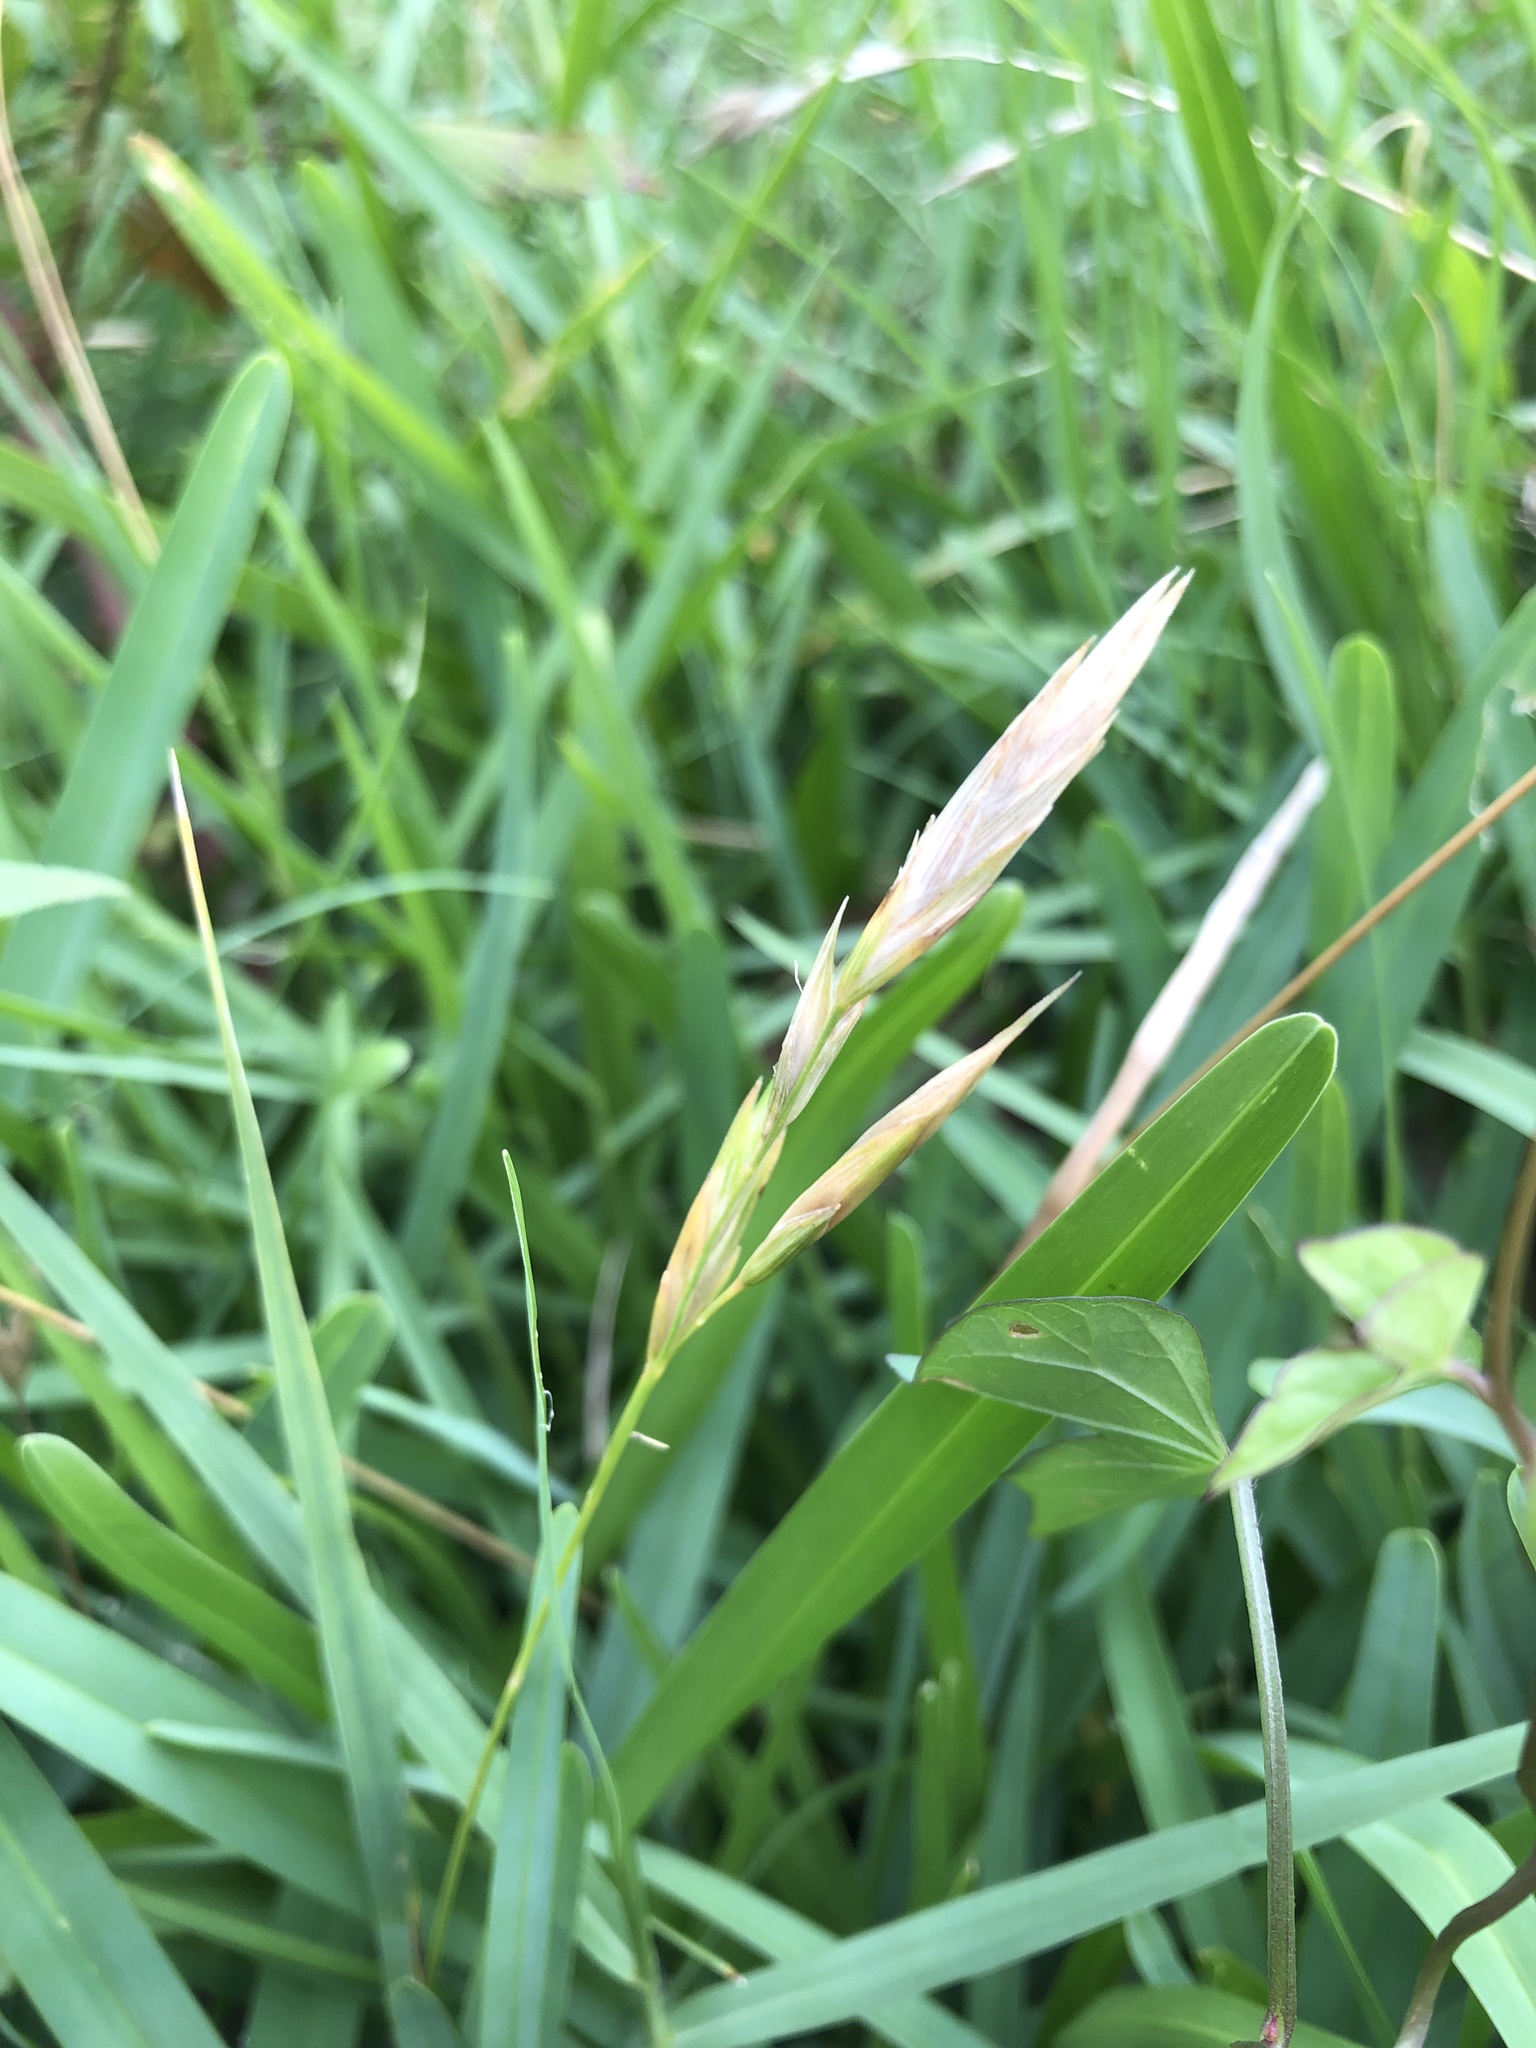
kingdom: Plantae
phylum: Tracheophyta
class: Liliopsida
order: Poales
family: Poaceae
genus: Bromus
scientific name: Bromus catharticus
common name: Rescuegrass
